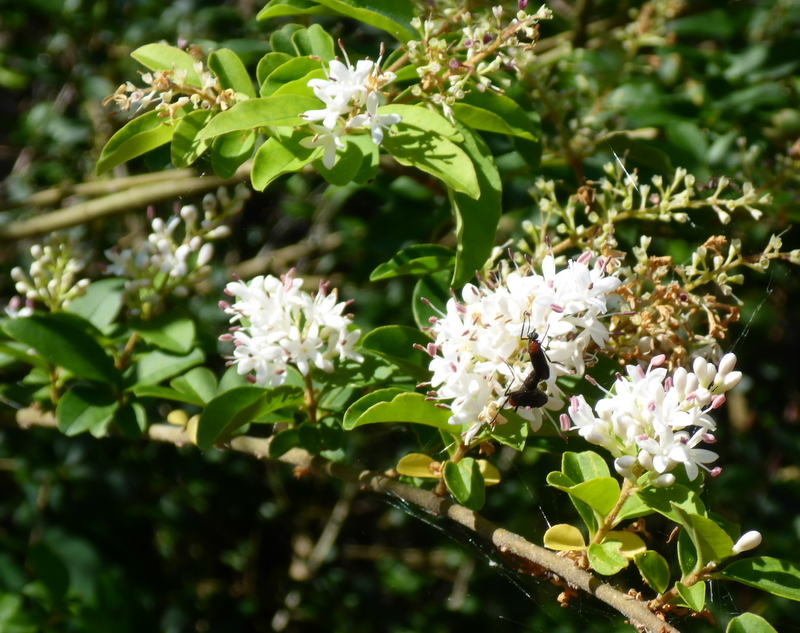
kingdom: Plantae
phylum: Tracheophyta
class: Magnoliopsida
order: Lamiales
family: Oleaceae
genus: Ligustrum
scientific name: Ligustrum sinense
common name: Chinese privet
